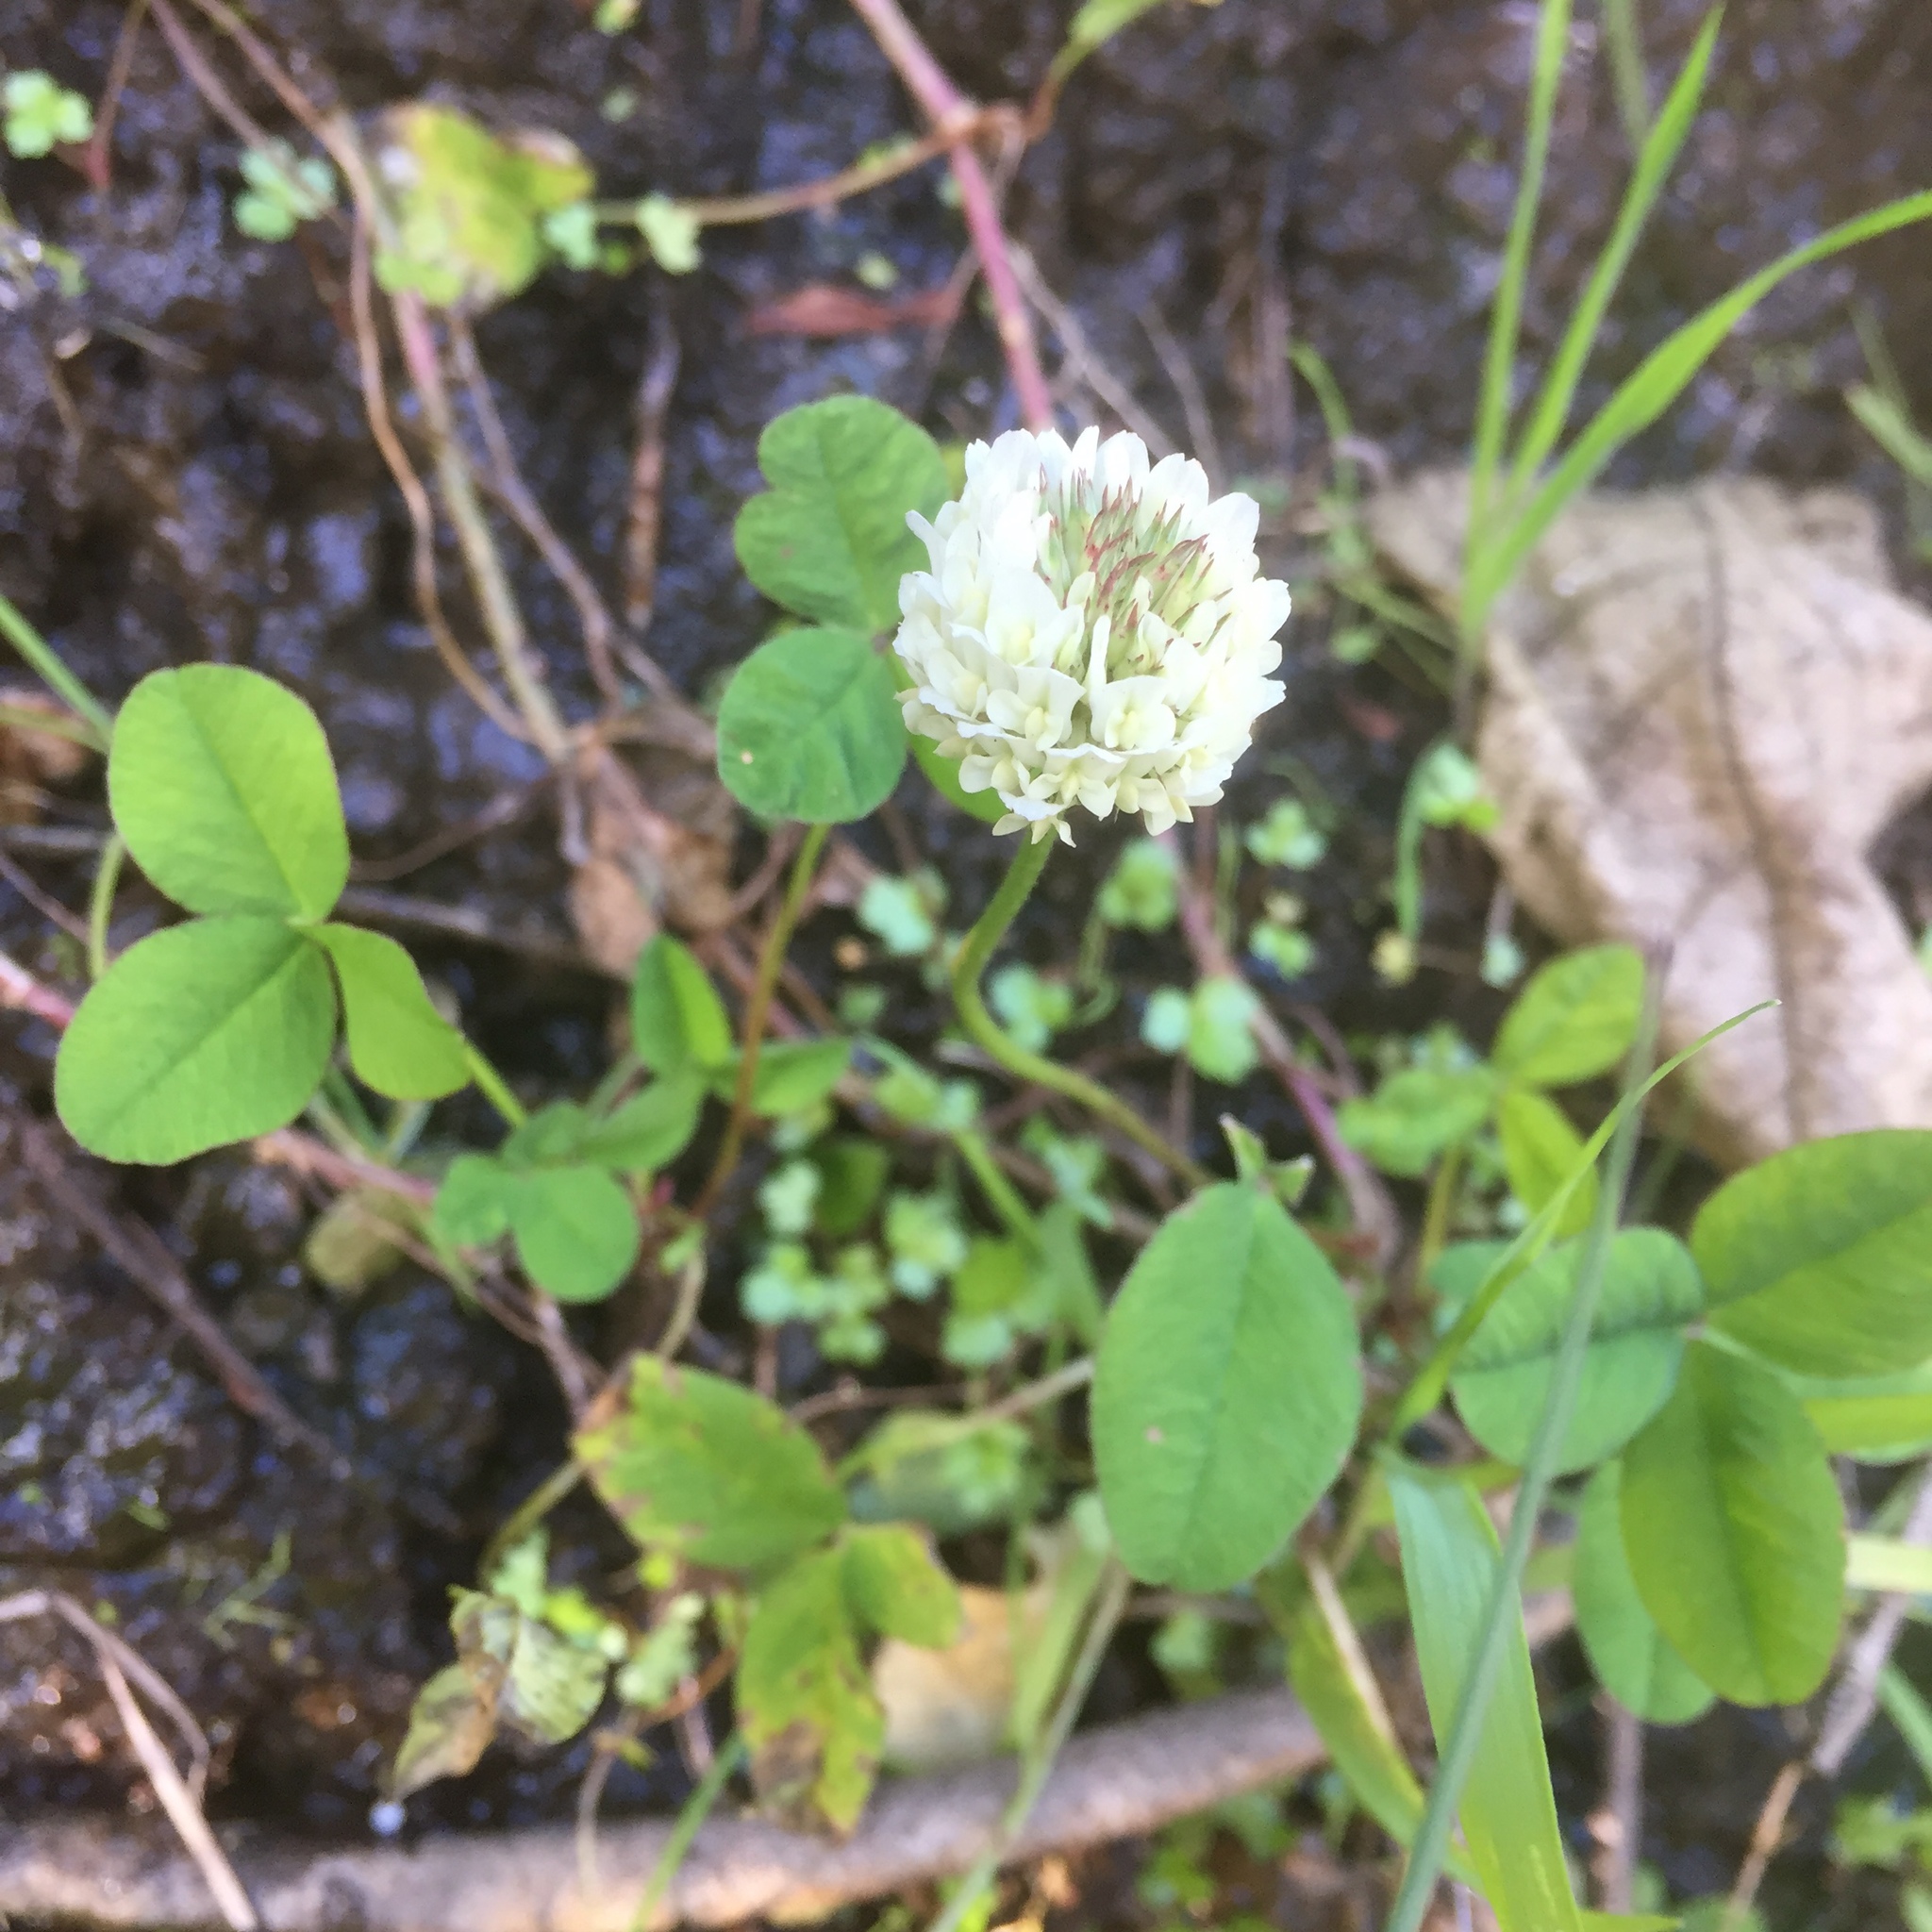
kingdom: Plantae
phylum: Tracheophyta
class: Magnoliopsida
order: Fabales
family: Fabaceae
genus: Trifolium
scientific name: Trifolium repens
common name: White clover
